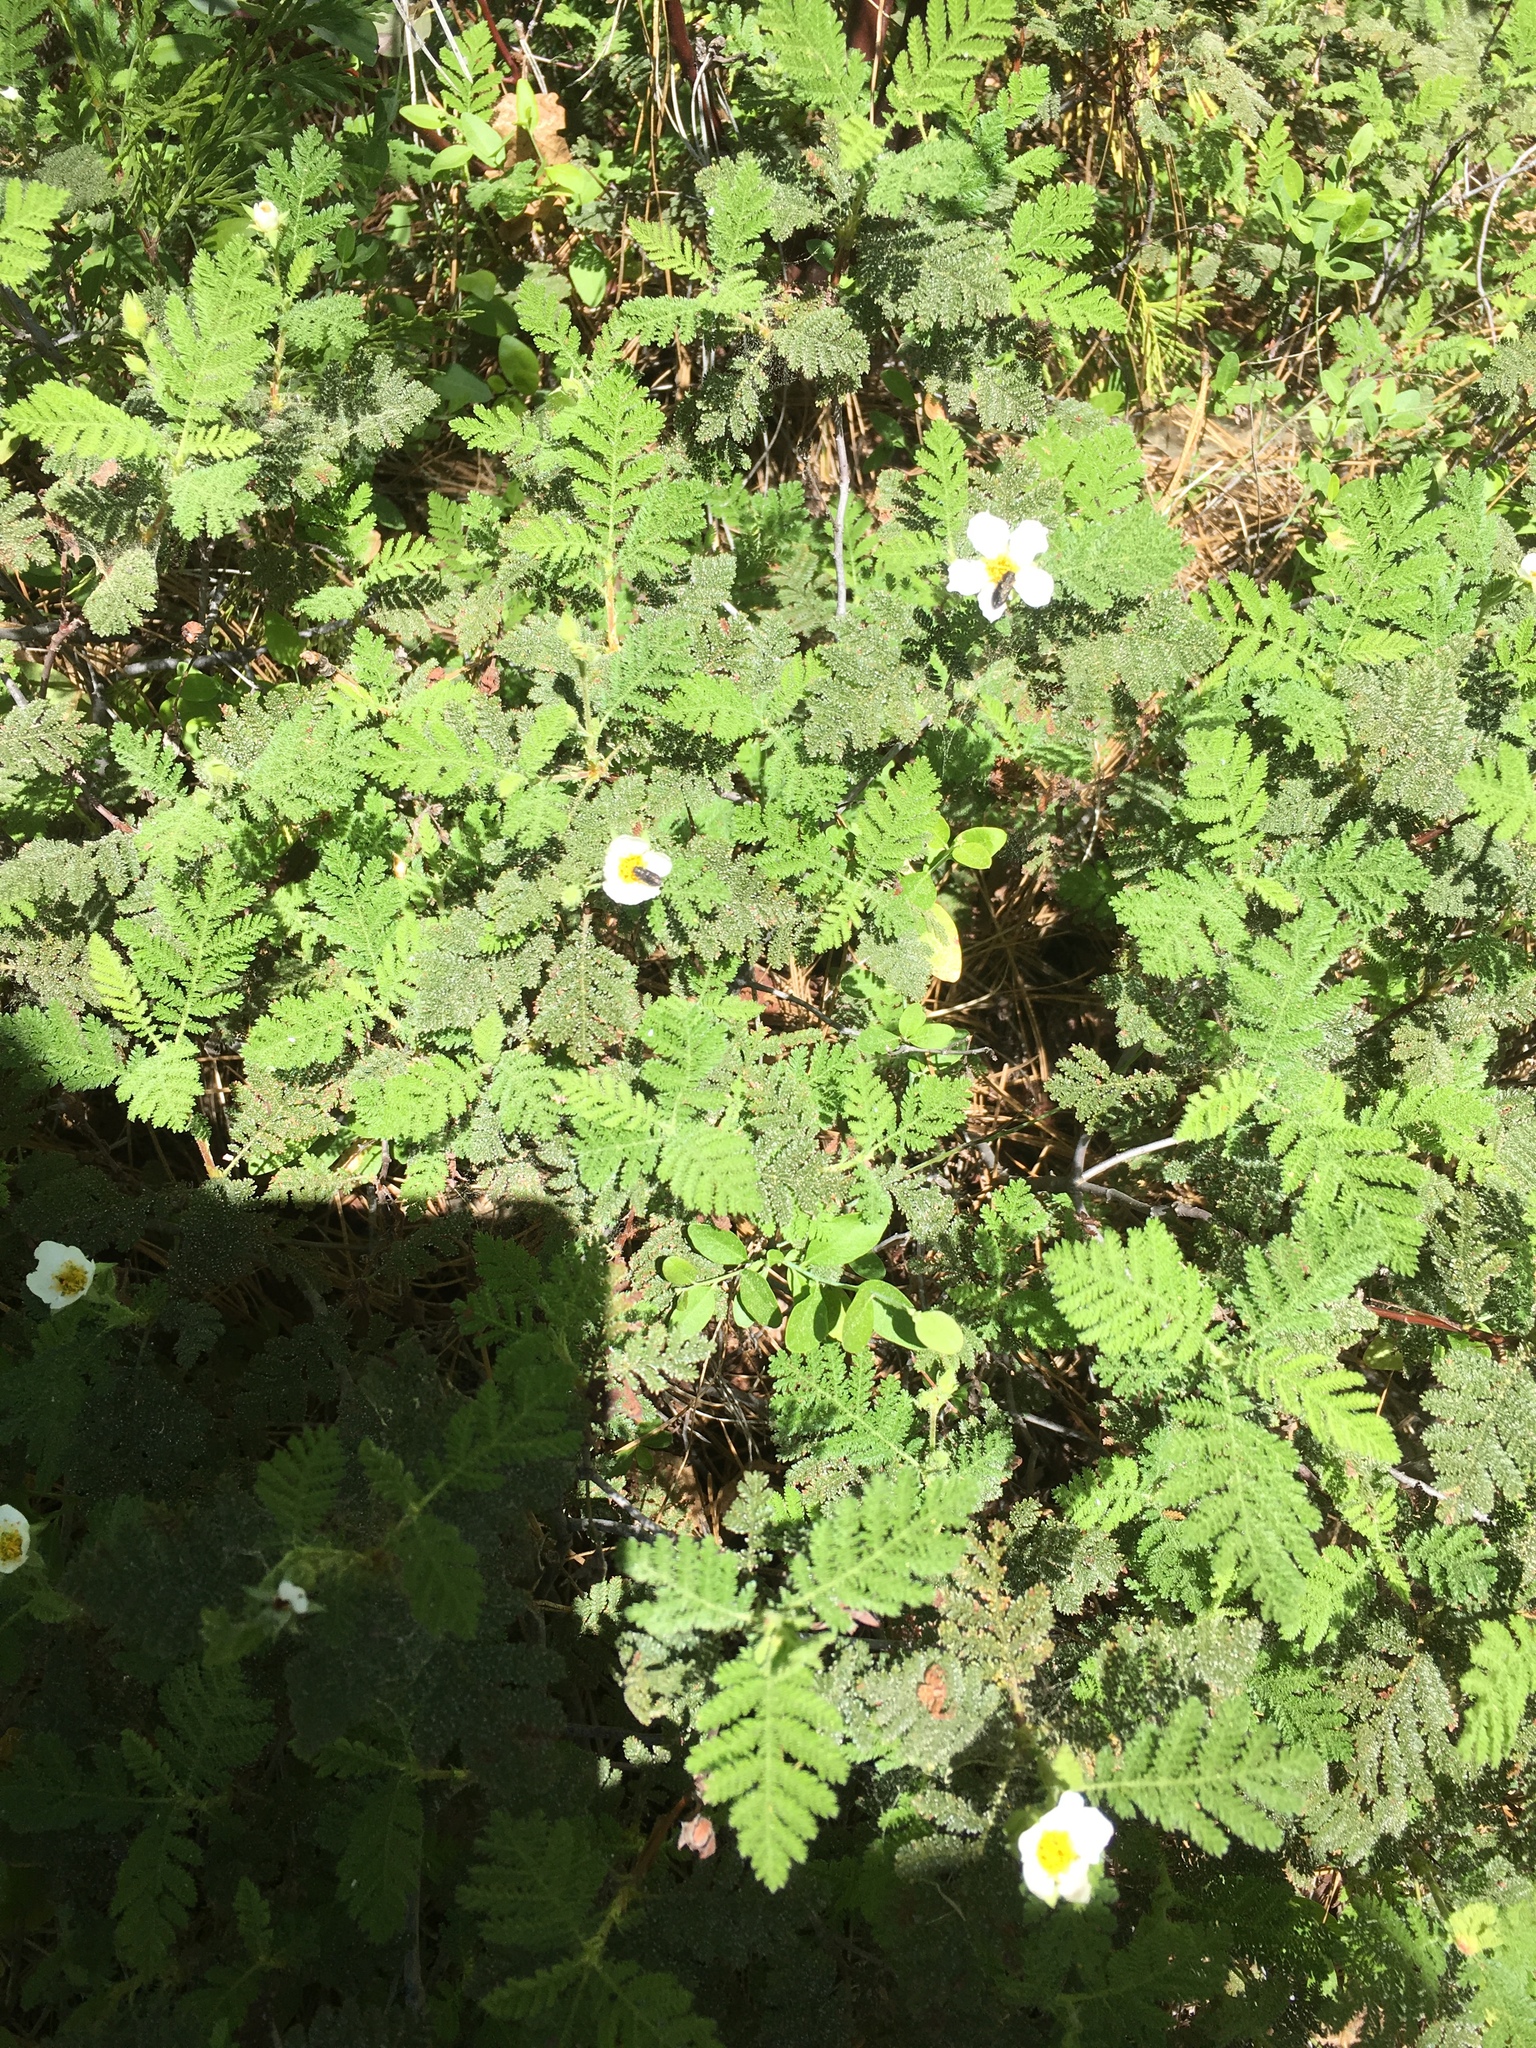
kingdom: Plantae
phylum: Tracheophyta
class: Magnoliopsida
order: Rosales
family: Rosaceae
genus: Chamaebatia
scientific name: Chamaebatia foliolosa
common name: Mountain misery
